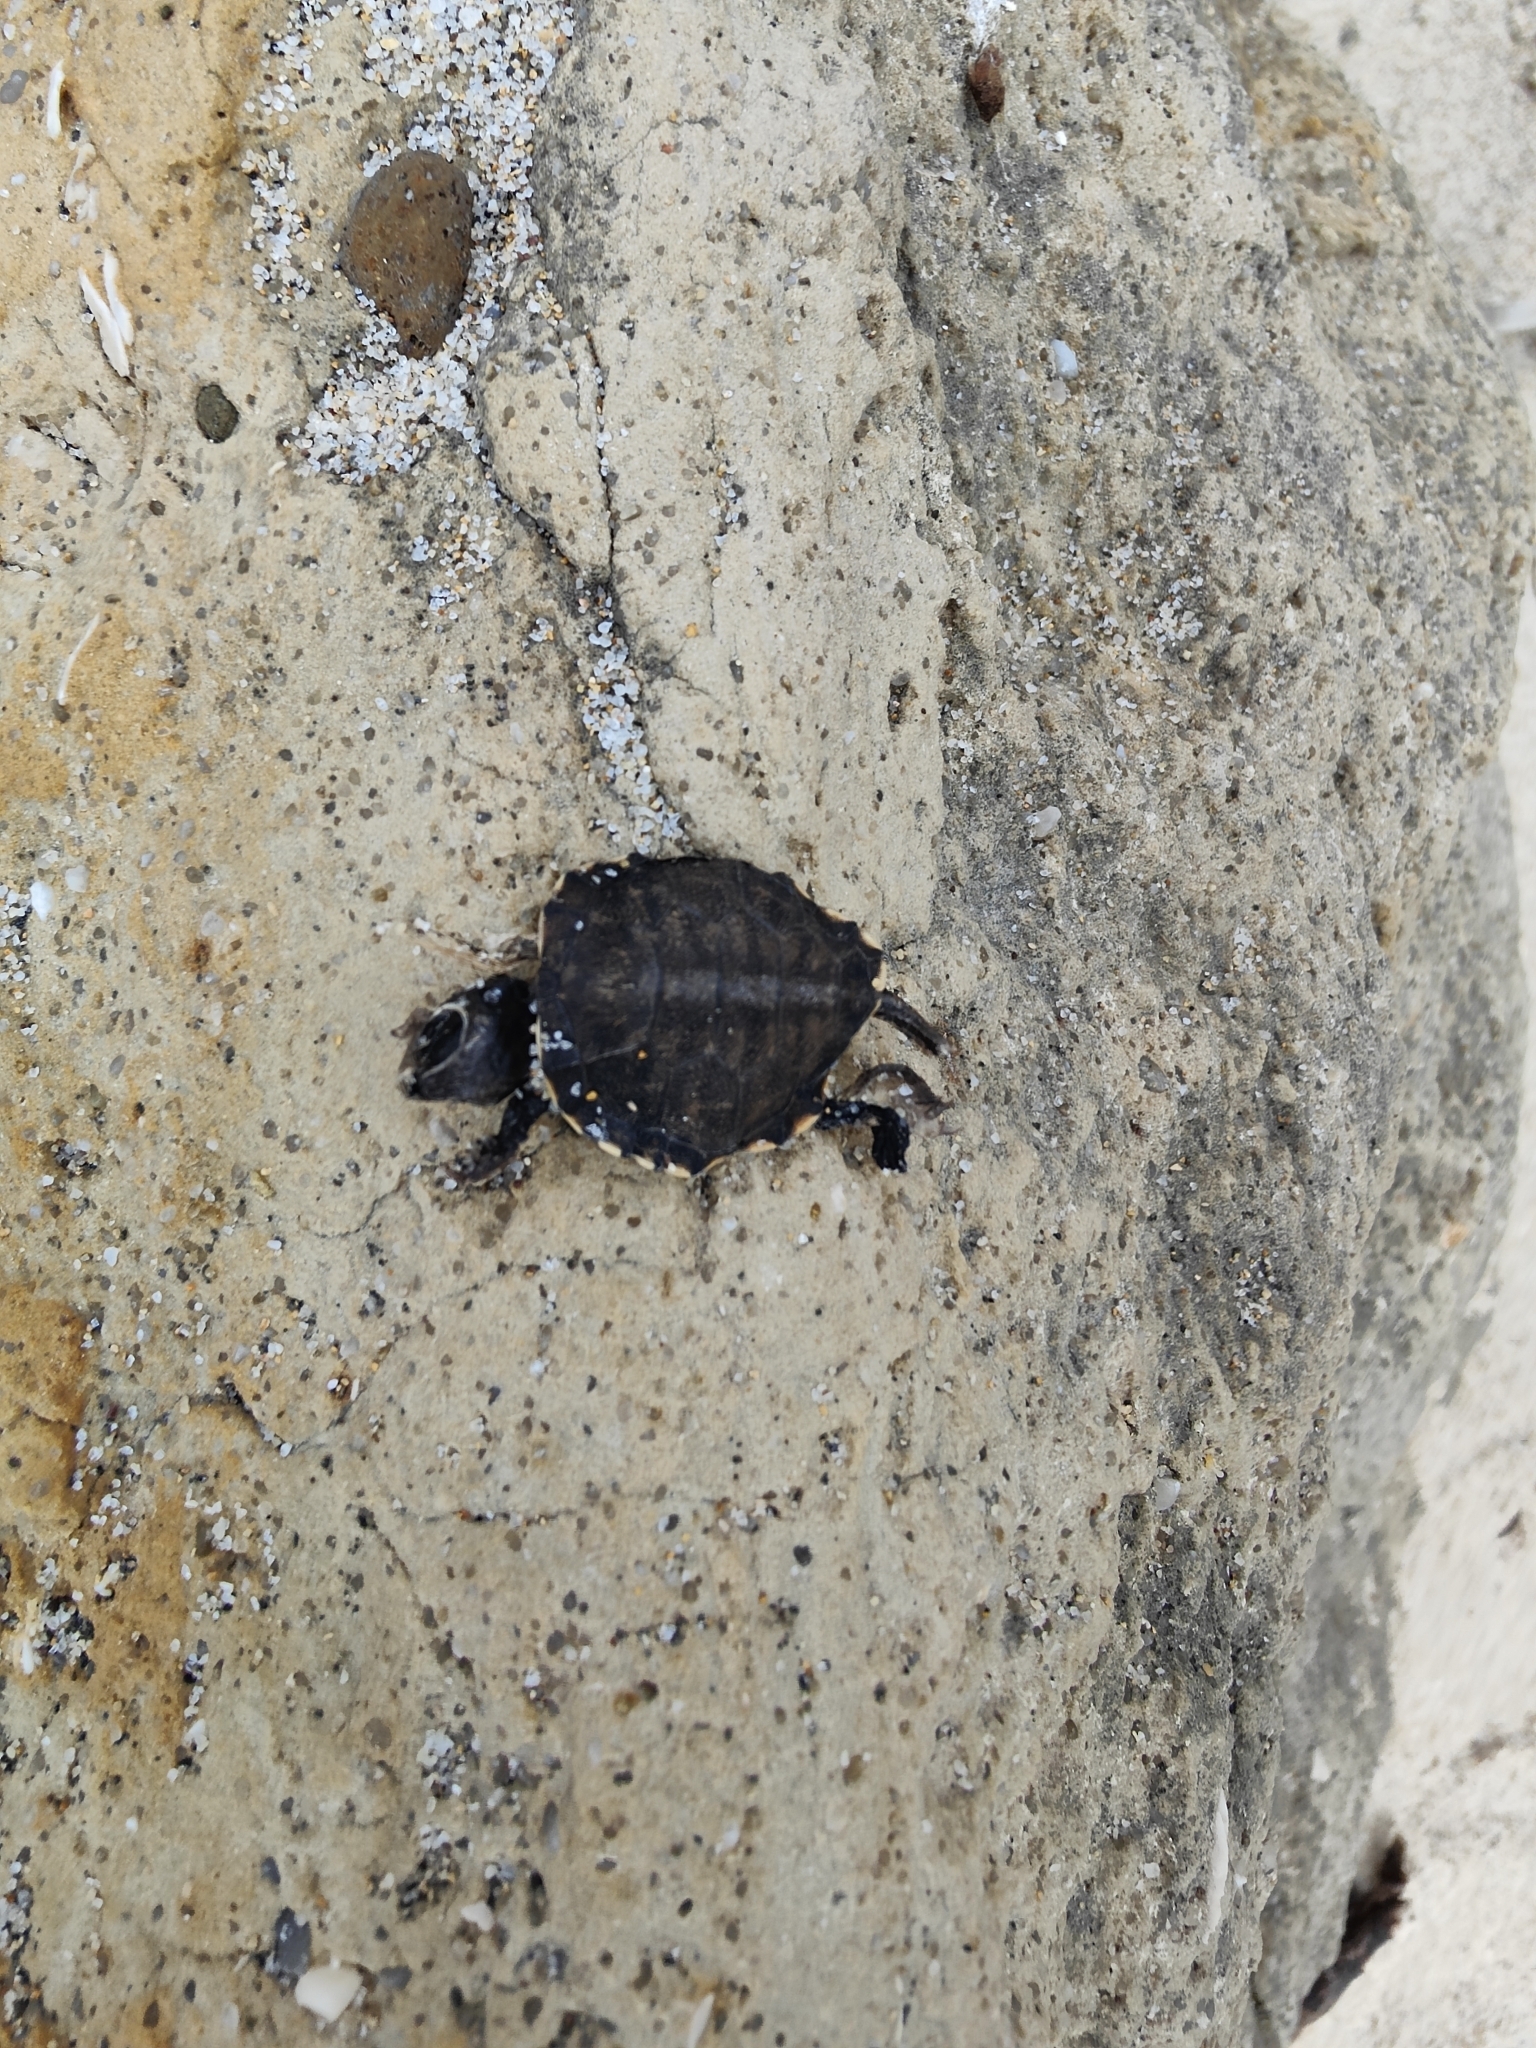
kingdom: Animalia
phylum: Chordata
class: Testudines
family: Cheloniidae
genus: Caretta
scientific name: Caretta caretta
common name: Loggerhead sea turtle
